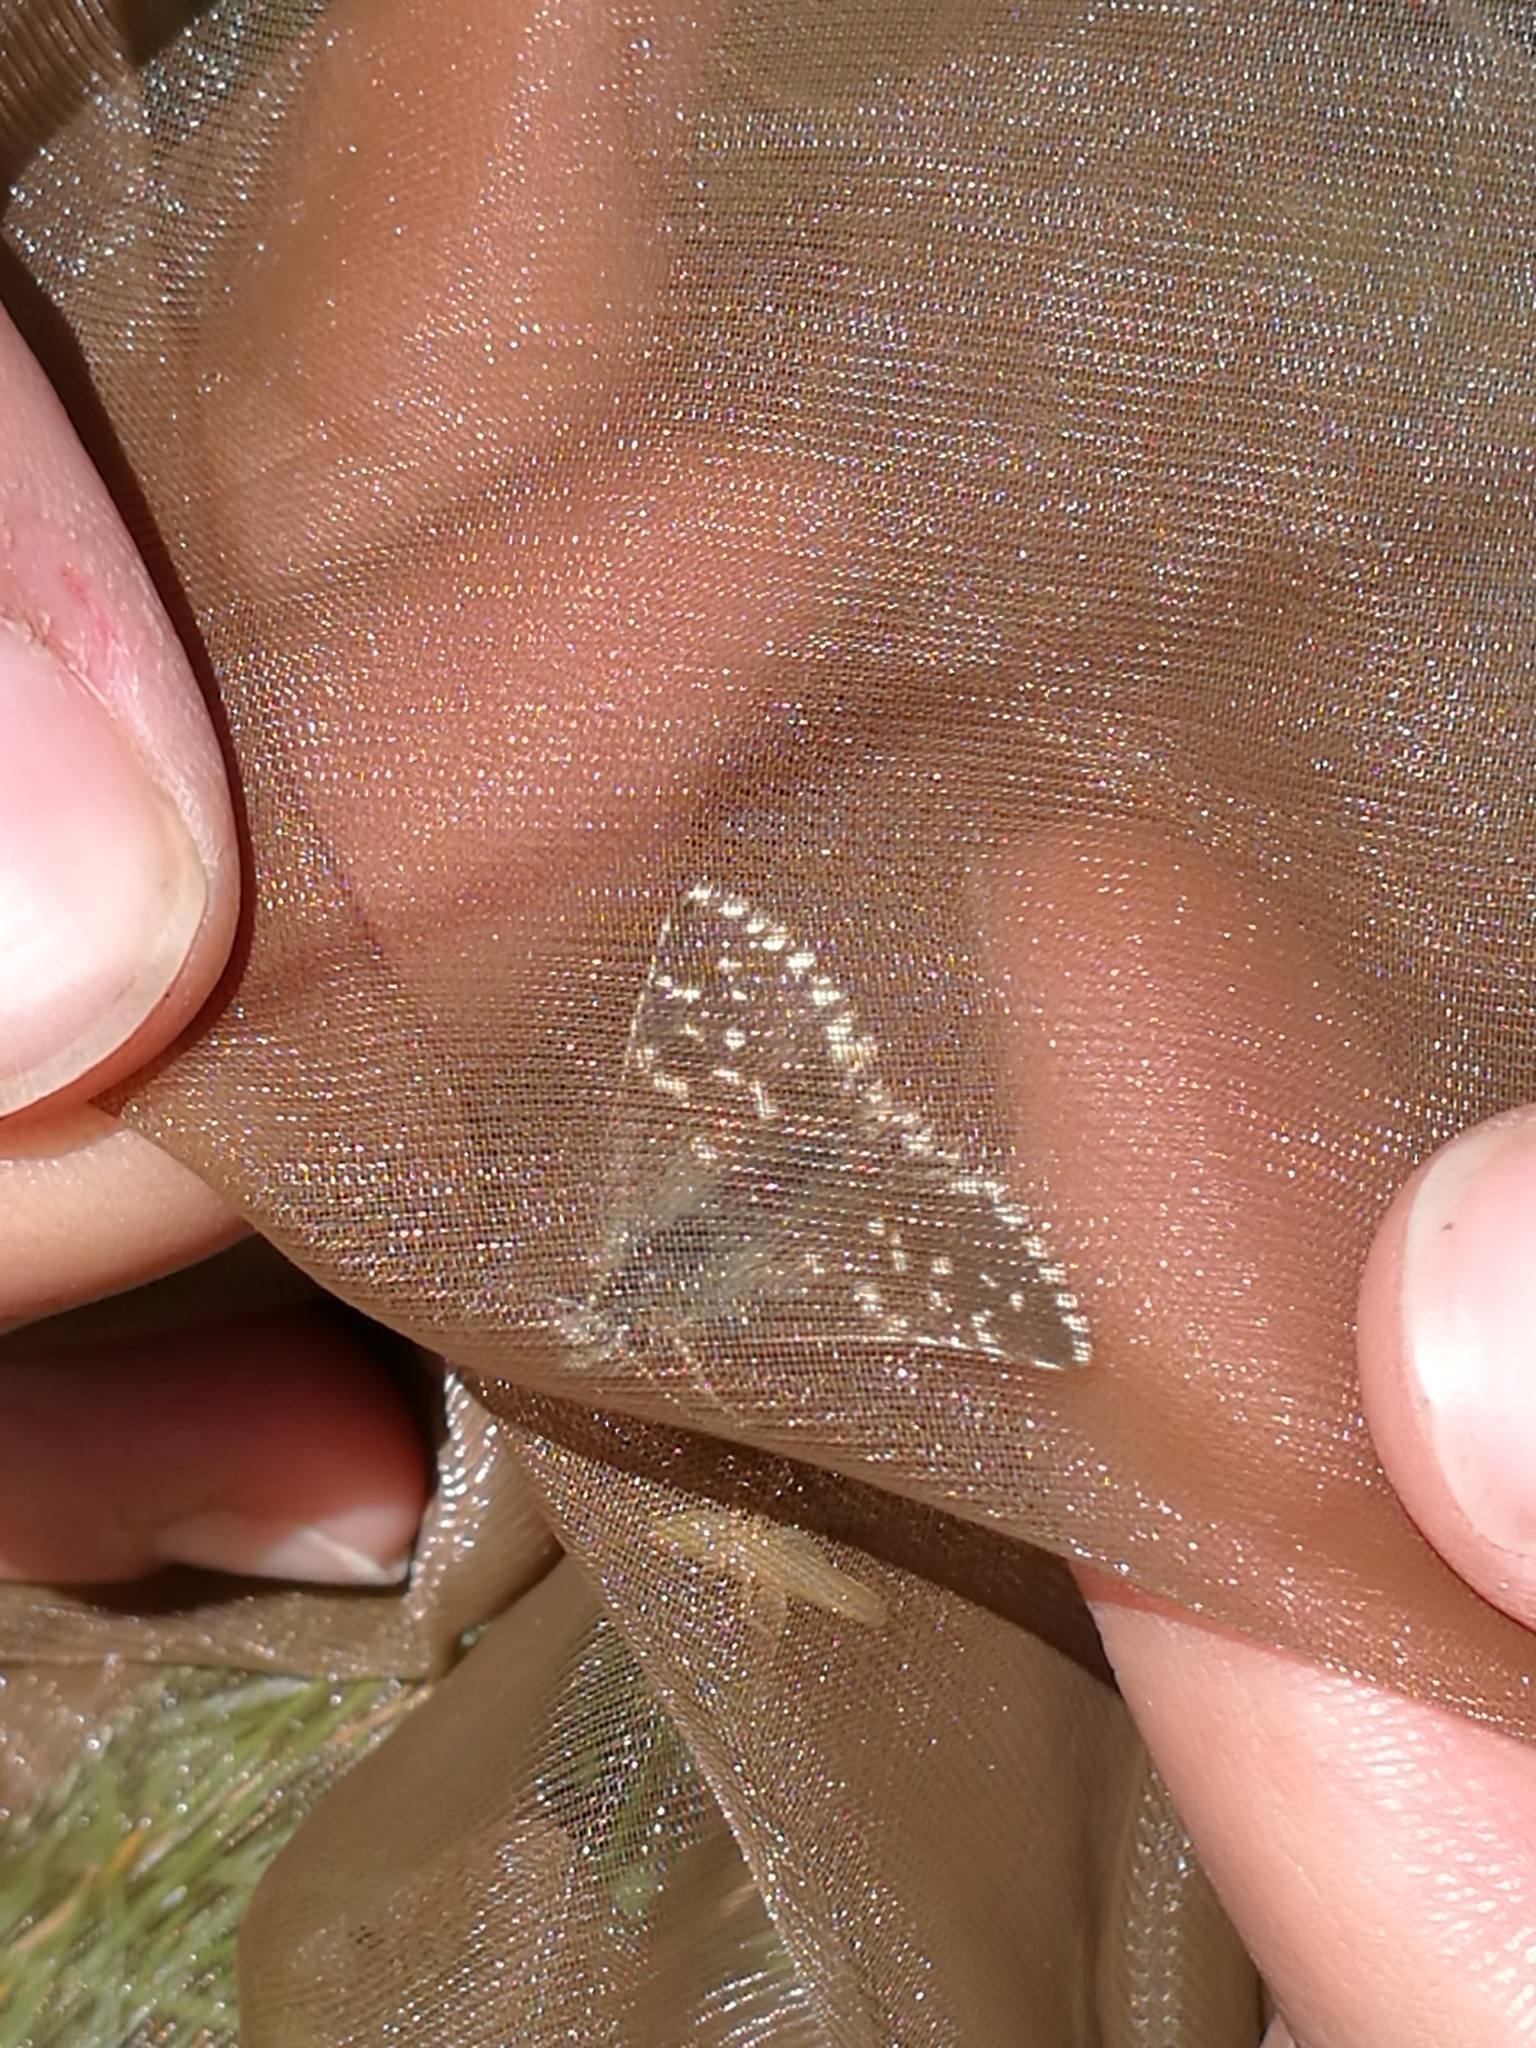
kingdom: Animalia
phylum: Arthropoda
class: Insecta
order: Lepidoptera
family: Hesperiidae
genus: Pyrgus
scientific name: Pyrgus malvoides
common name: Southern grizzled skipper
